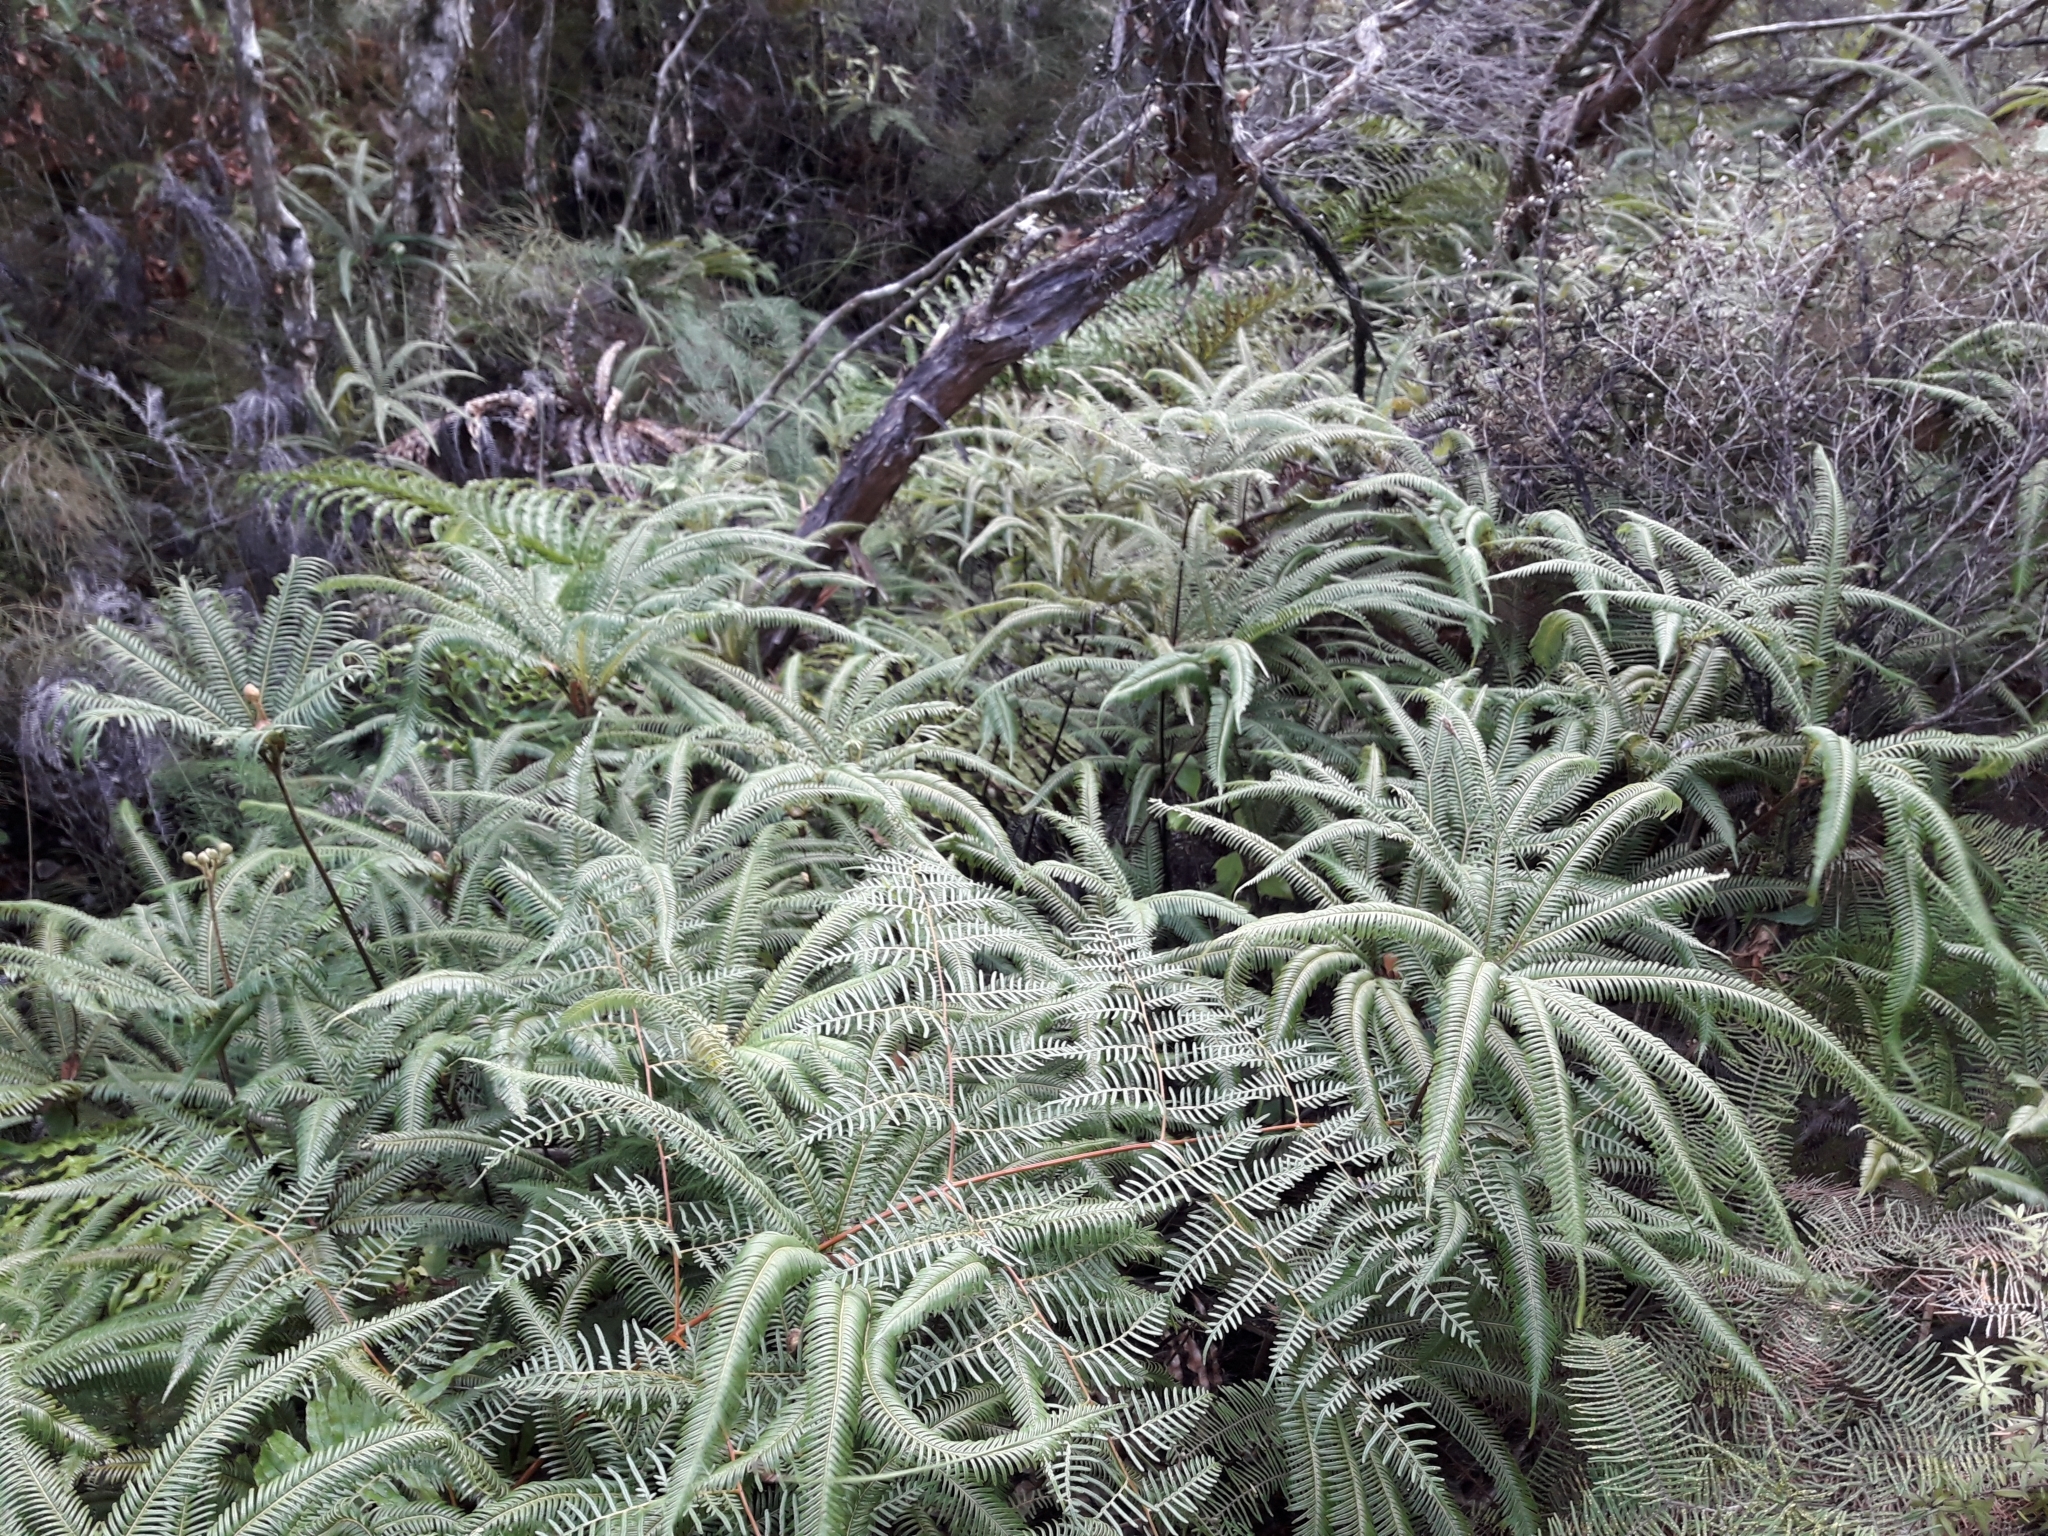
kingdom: Plantae
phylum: Tracheophyta
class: Polypodiopsida
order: Gleicheniales
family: Gleicheniaceae
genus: Sticherus
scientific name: Sticherus
